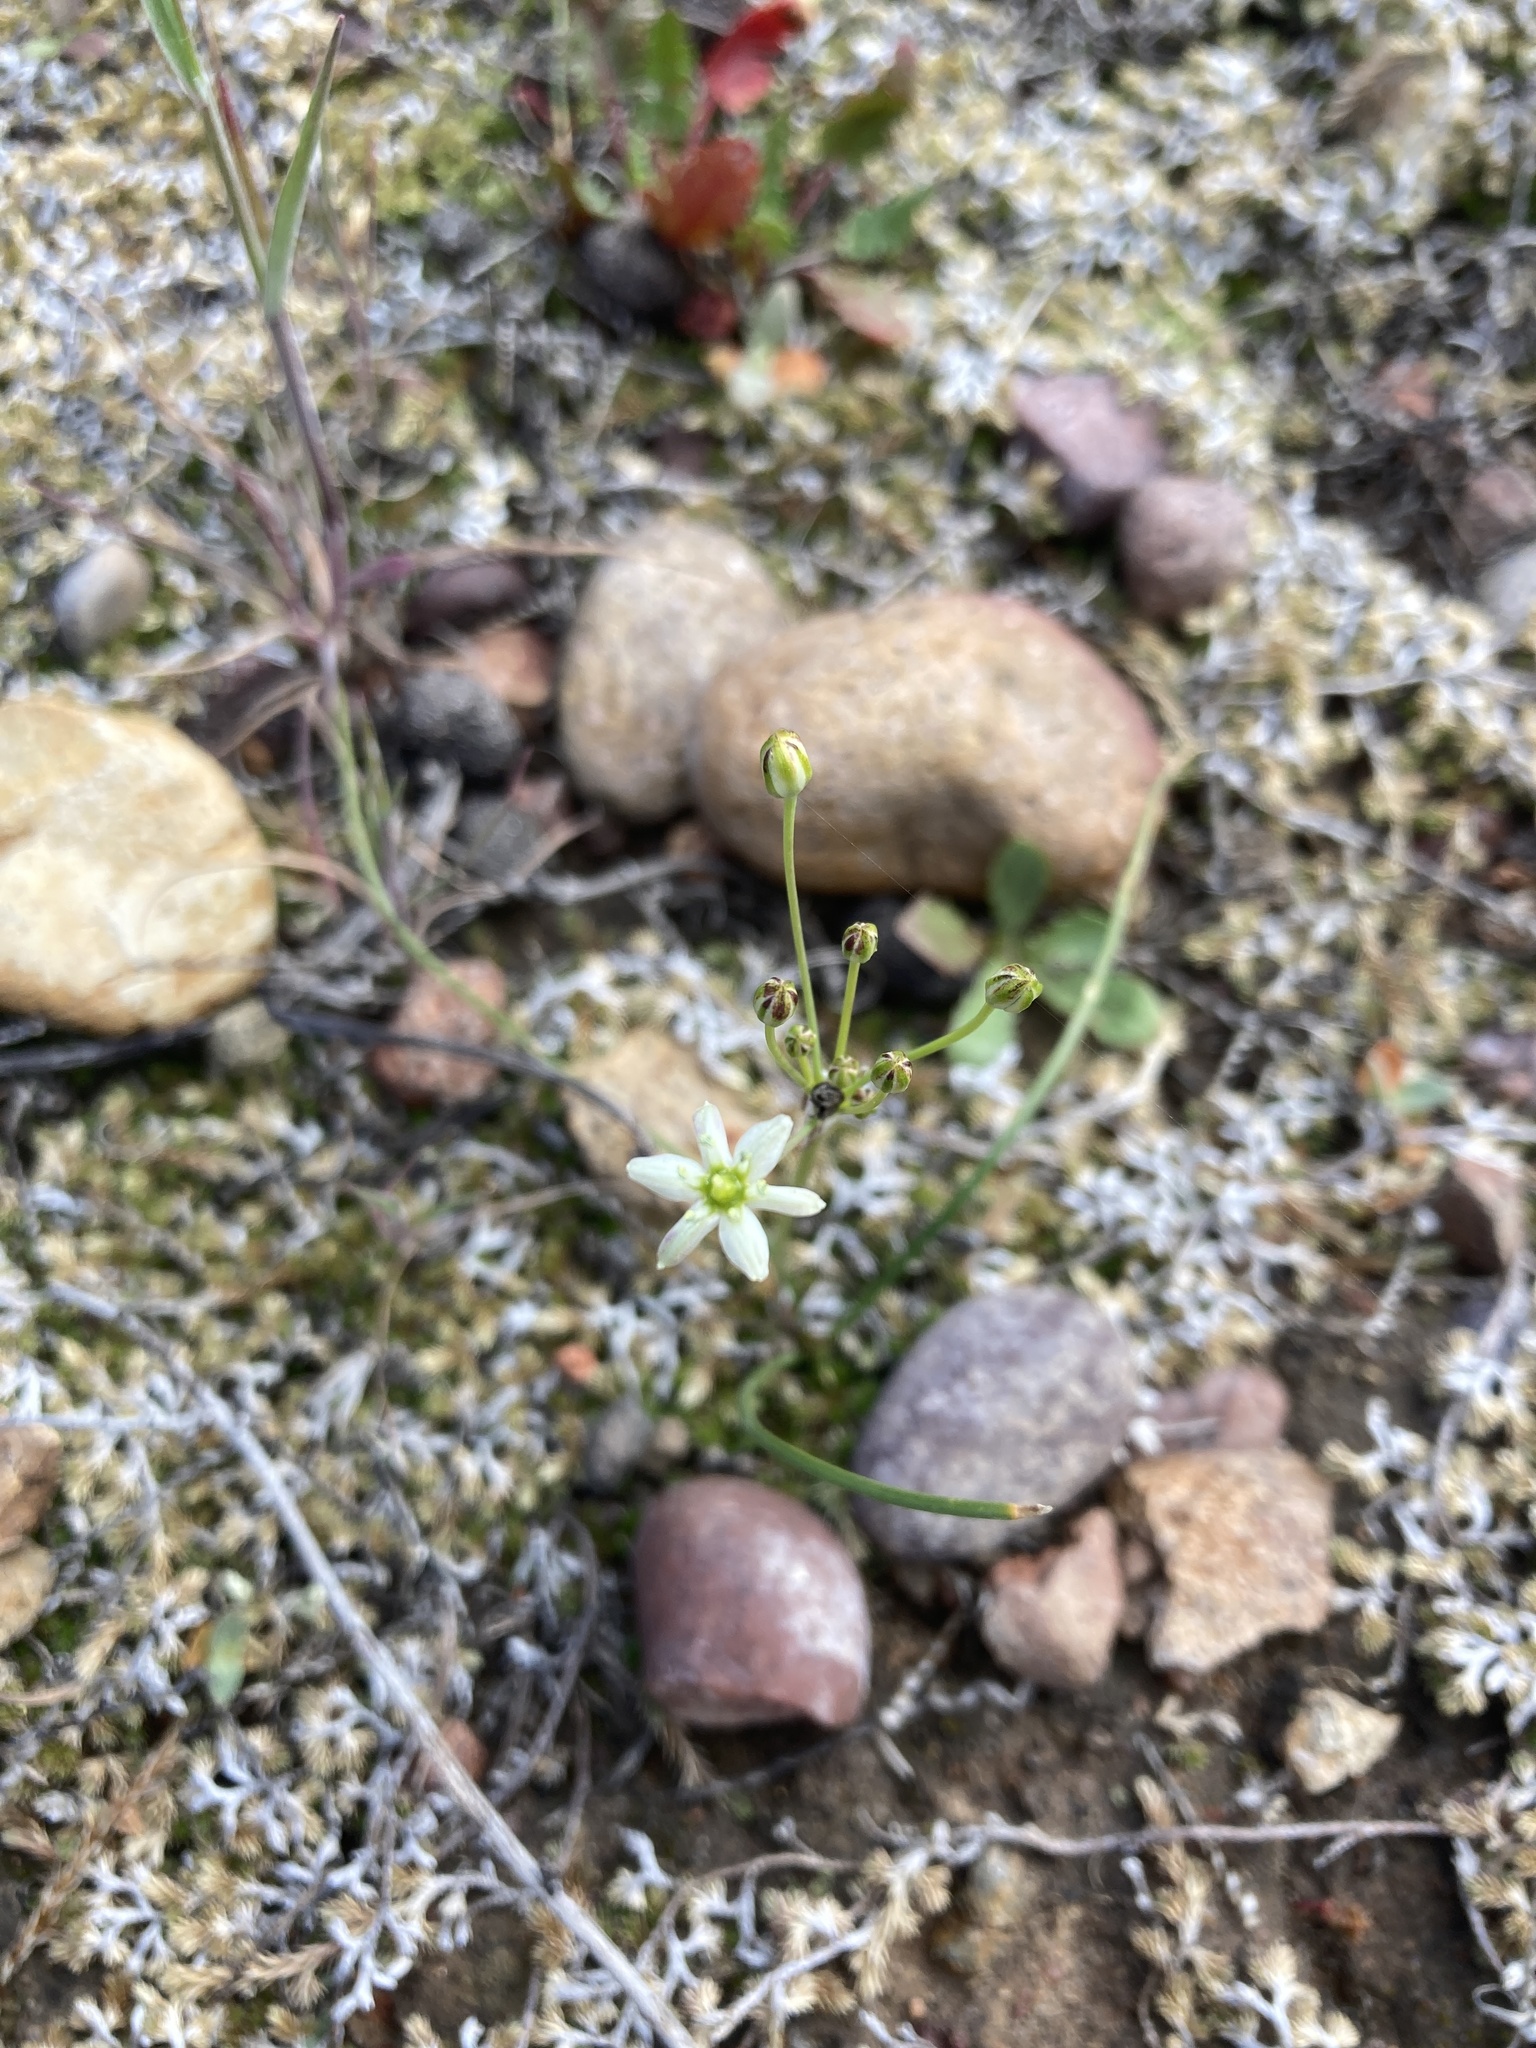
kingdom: Plantae
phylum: Tracheophyta
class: Liliopsida
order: Asparagales
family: Asparagaceae
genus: Muilla
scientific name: Muilla maritima
